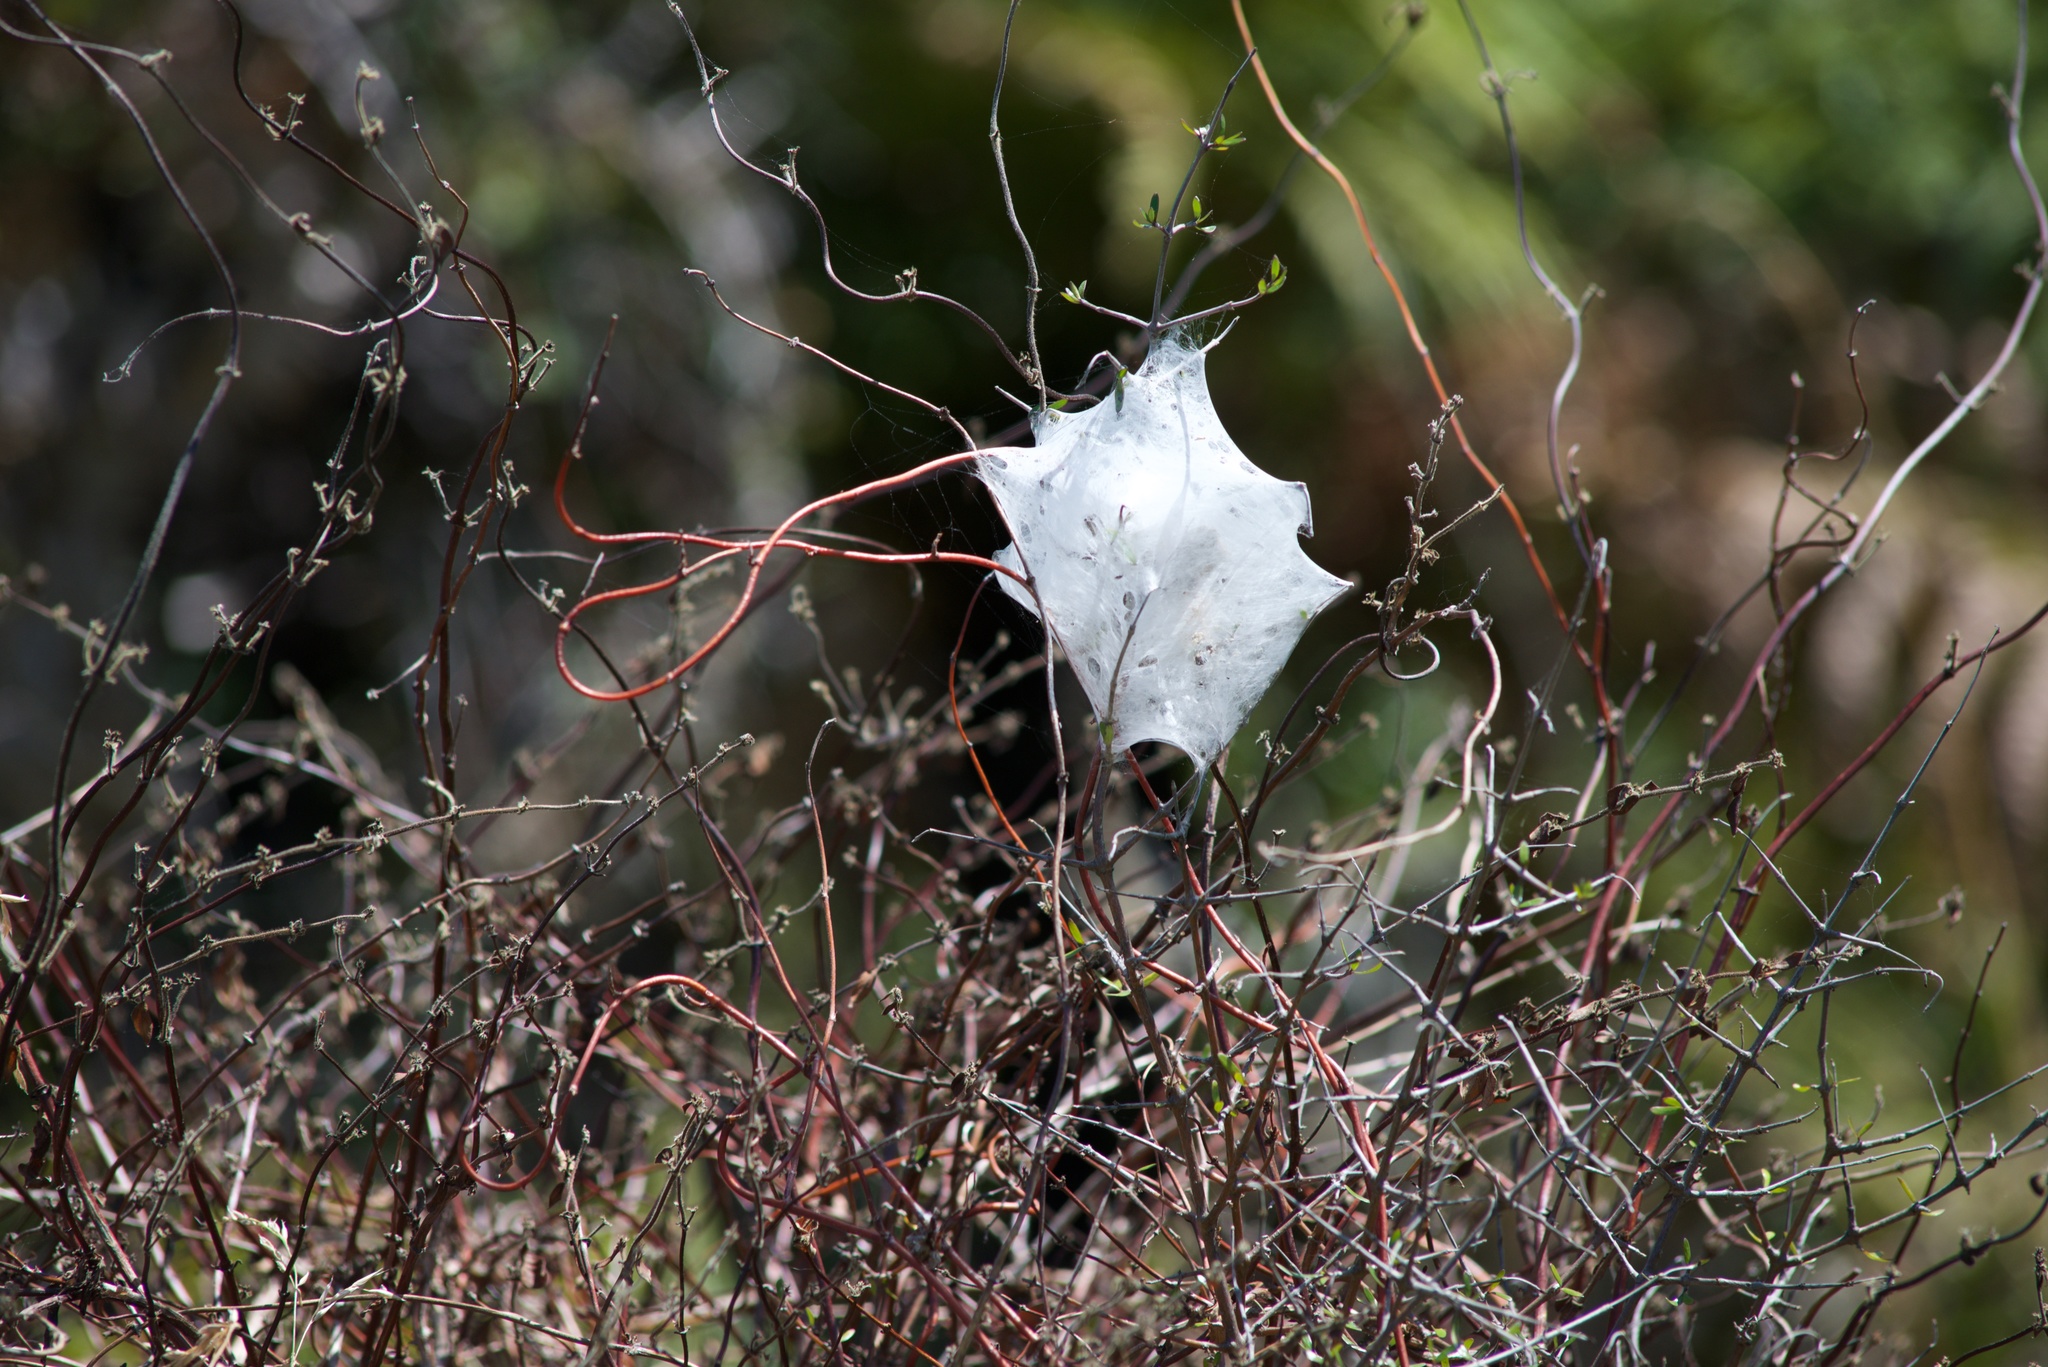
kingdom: Animalia
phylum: Arthropoda
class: Arachnida
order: Araneae
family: Pisauridae
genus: Dolomedes
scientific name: Dolomedes minor
